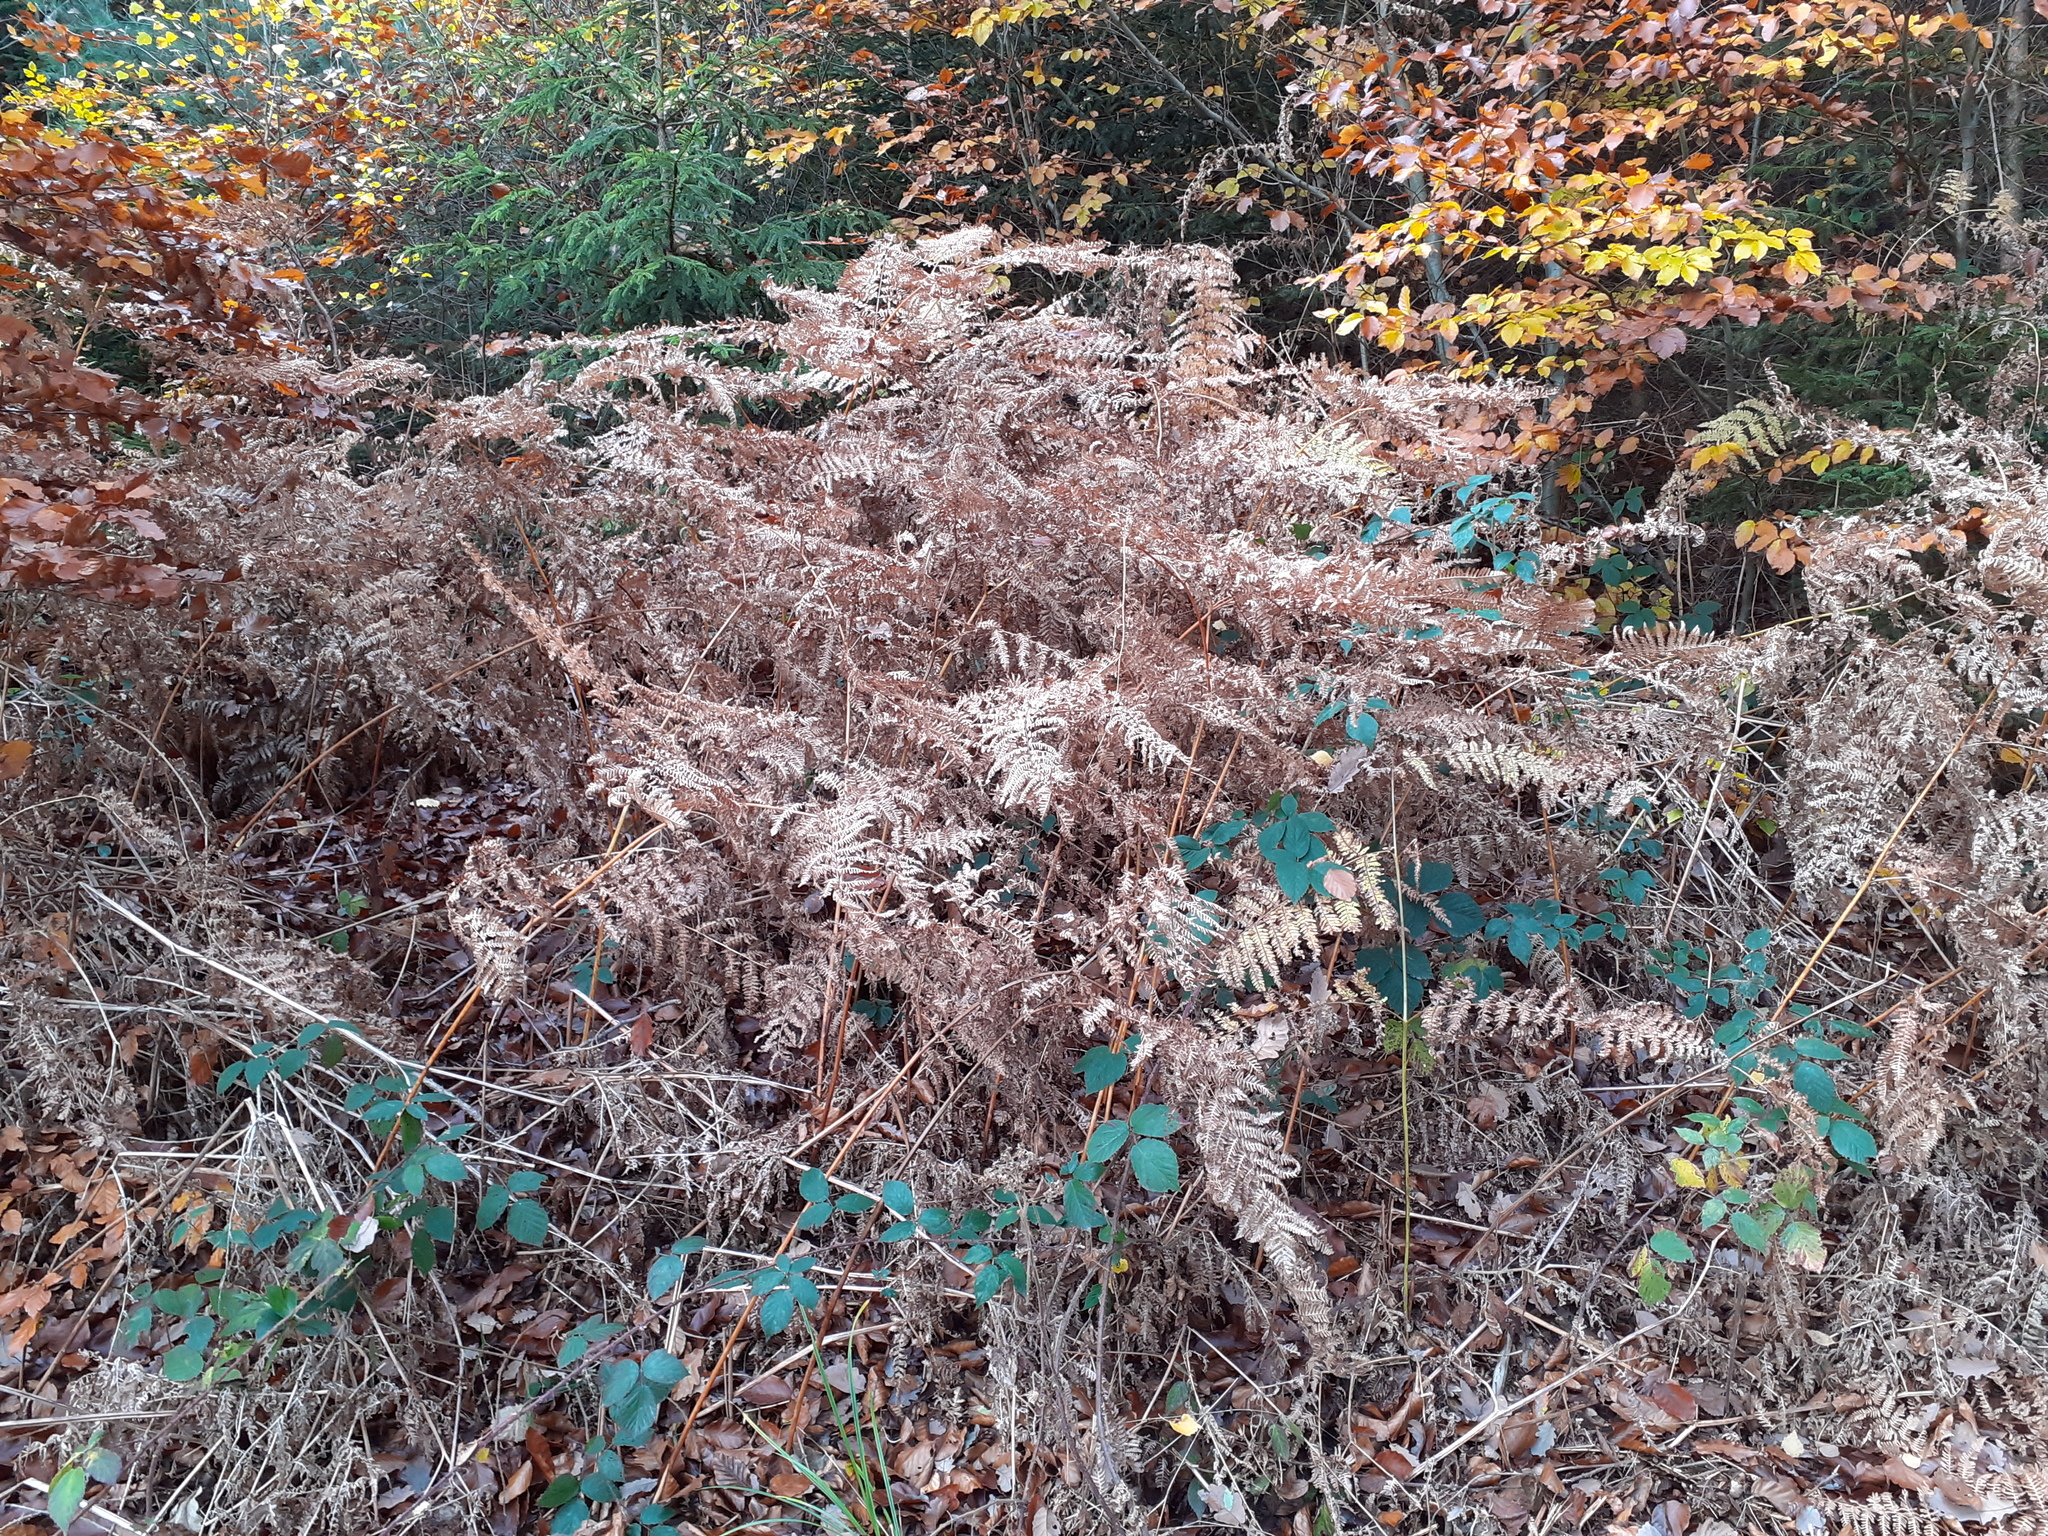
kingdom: Plantae
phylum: Tracheophyta
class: Polypodiopsida
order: Polypodiales
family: Dennstaedtiaceae
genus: Pteridium
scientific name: Pteridium aquilinum
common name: Bracken
